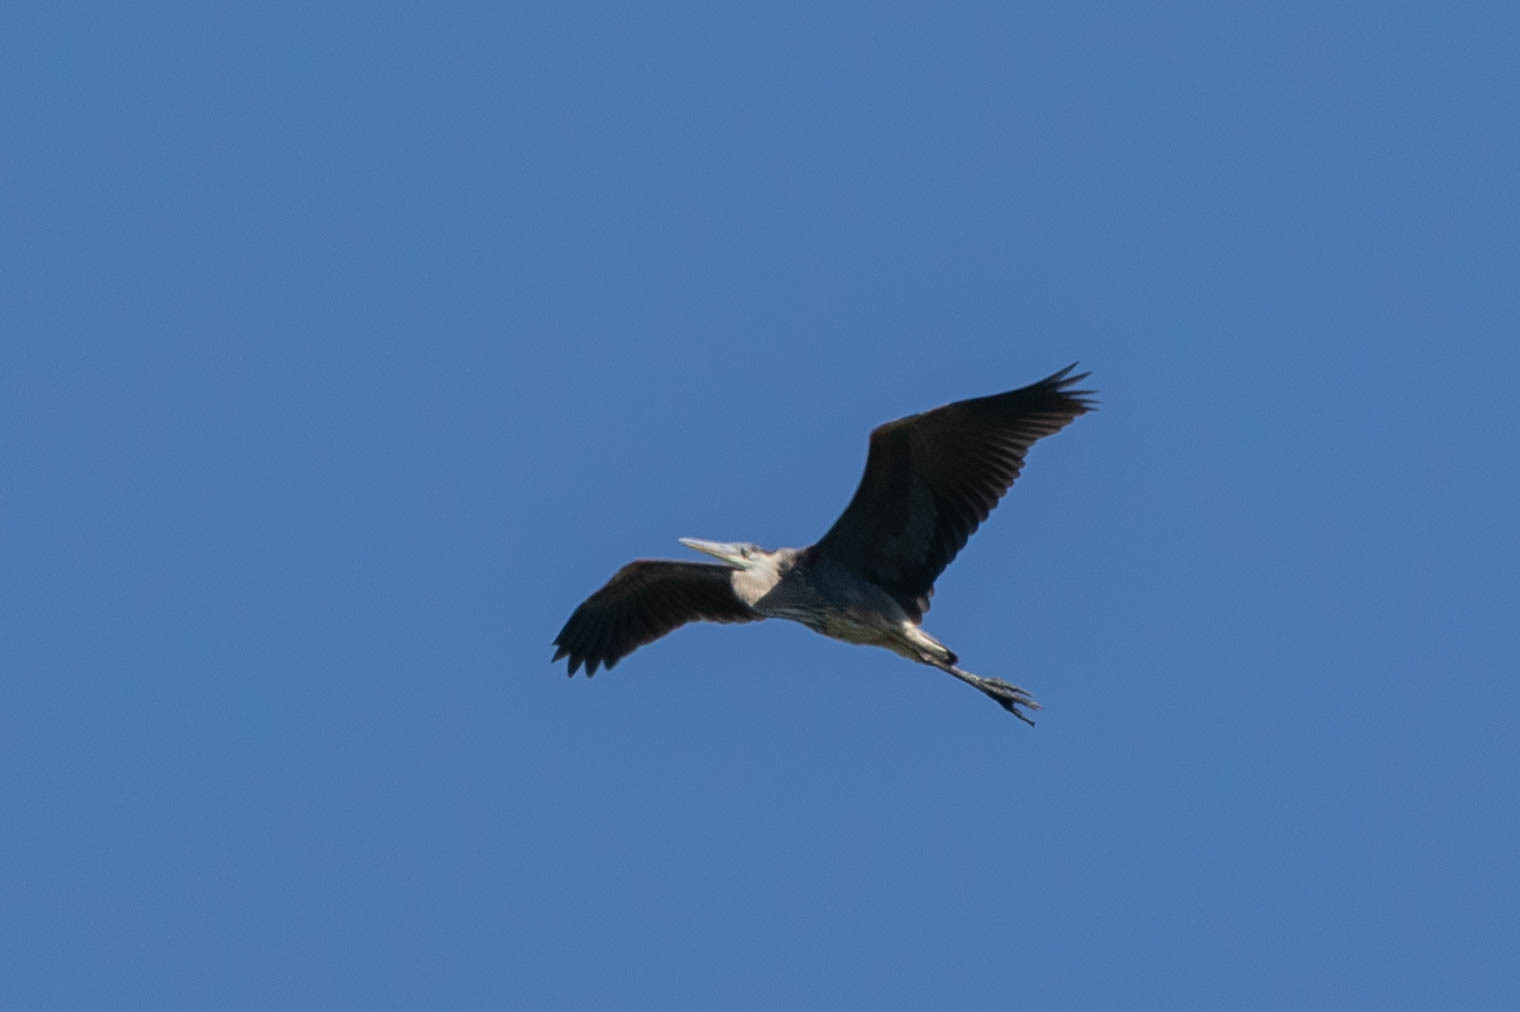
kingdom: Animalia
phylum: Chordata
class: Aves
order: Pelecaniformes
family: Ardeidae
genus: Ardea
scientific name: Ardea herodias
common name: Great blue heron
